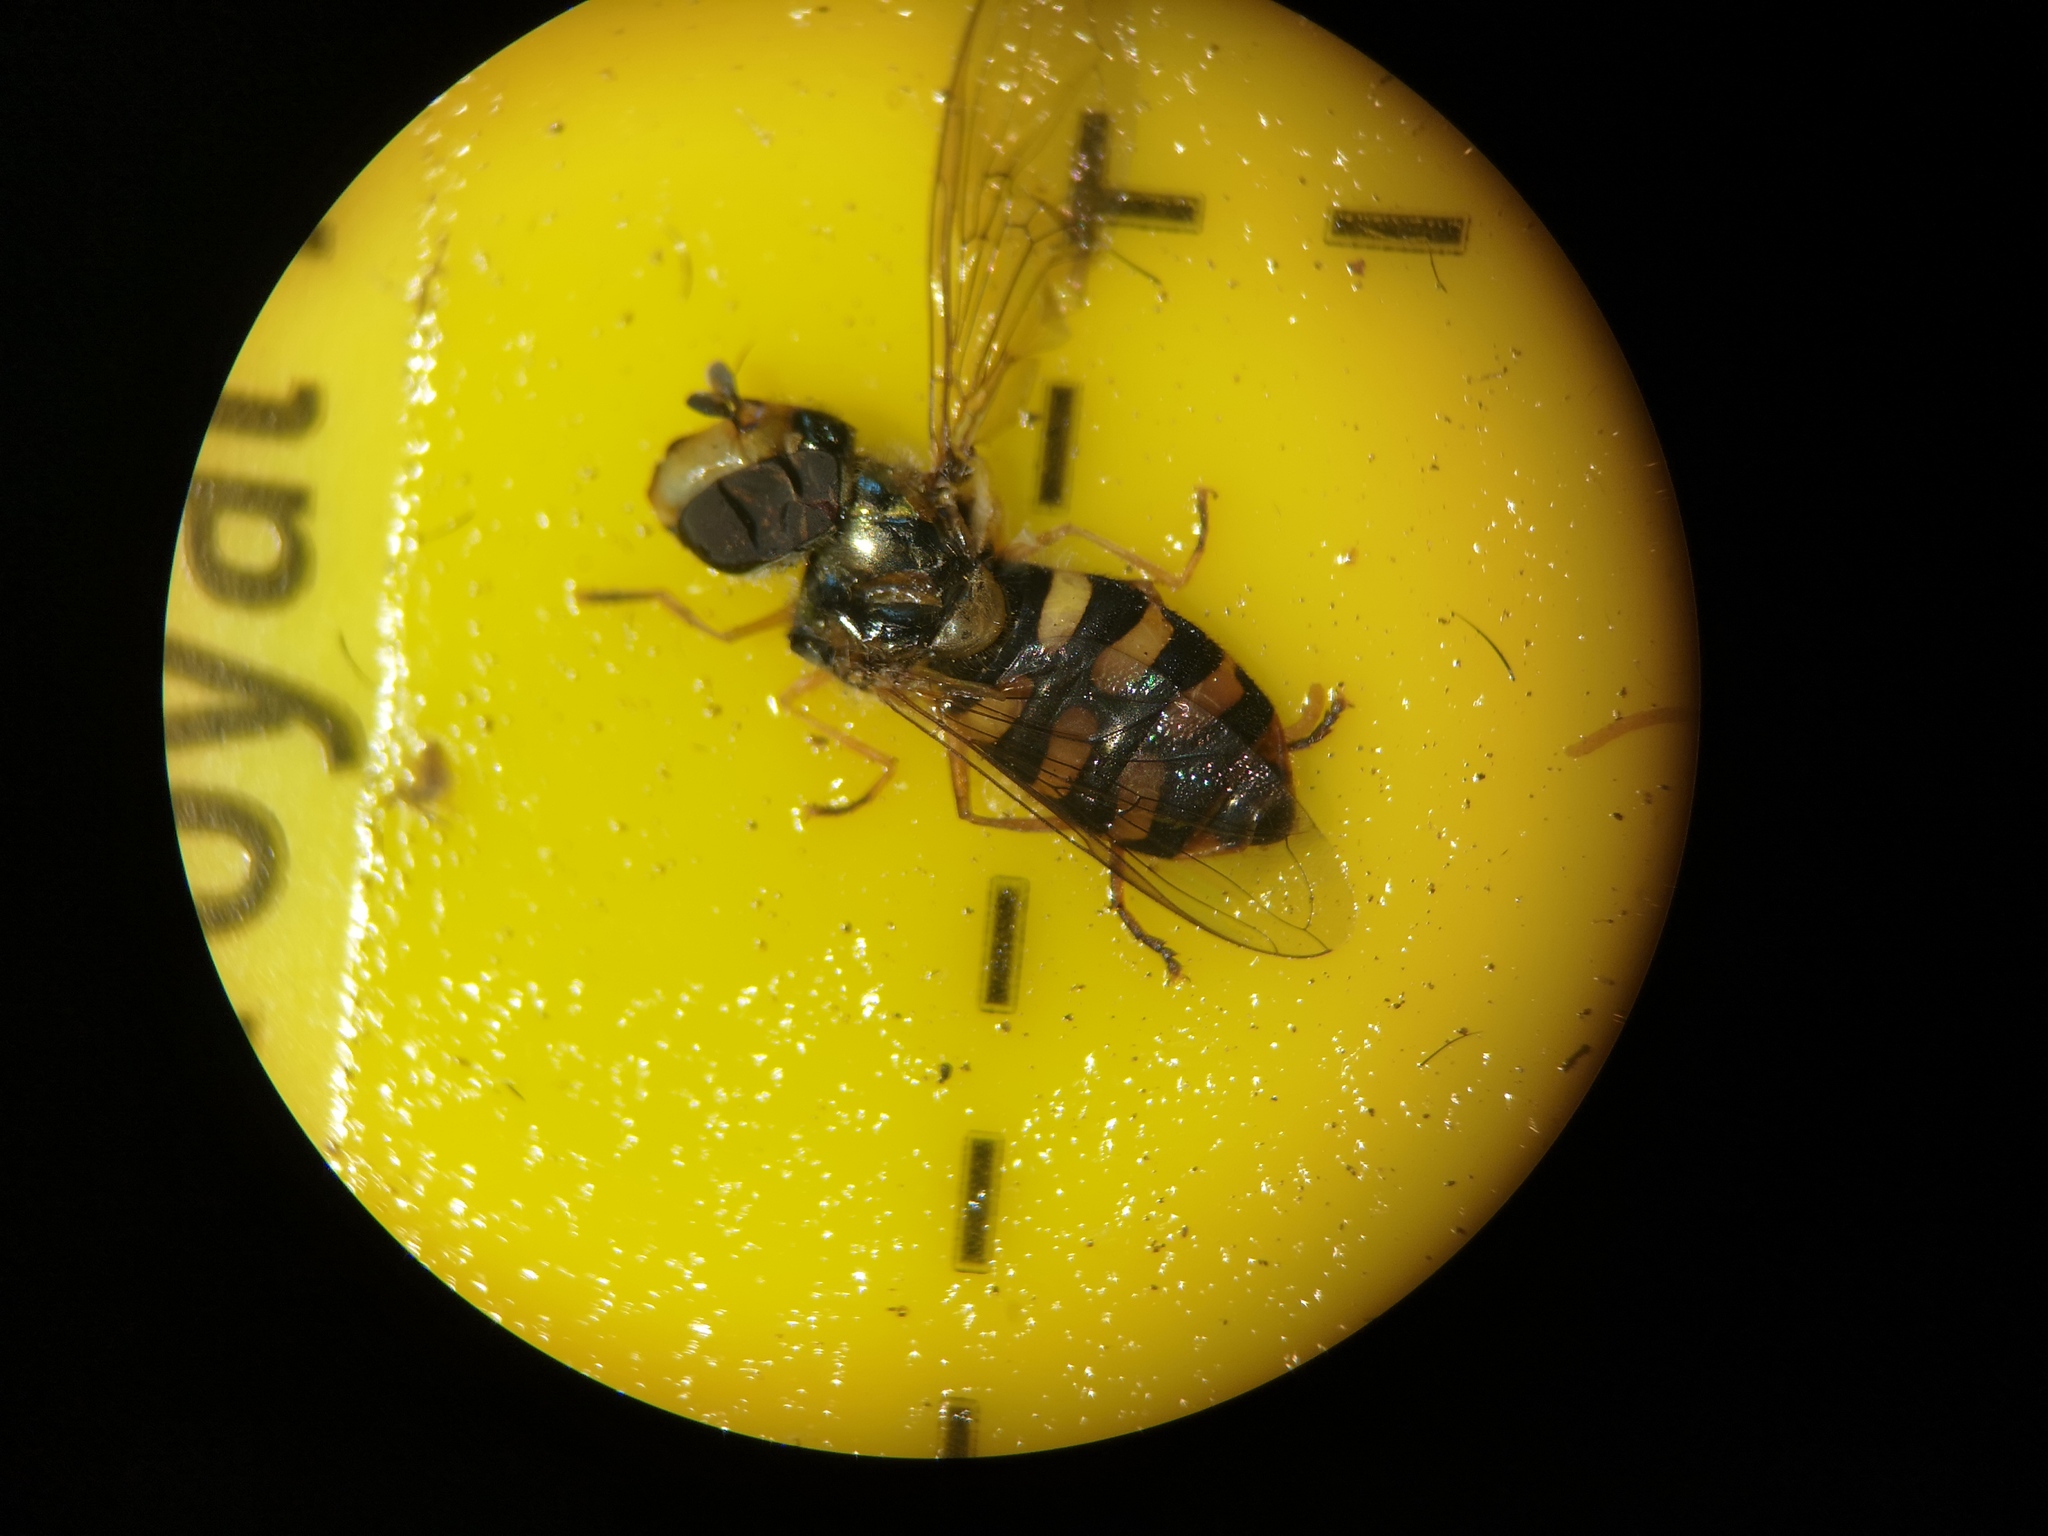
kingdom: Animalia
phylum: Arthropoda
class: Insecta
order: Diptera
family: Syrphidae
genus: Eupeodes
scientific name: Eupeodes corollae
